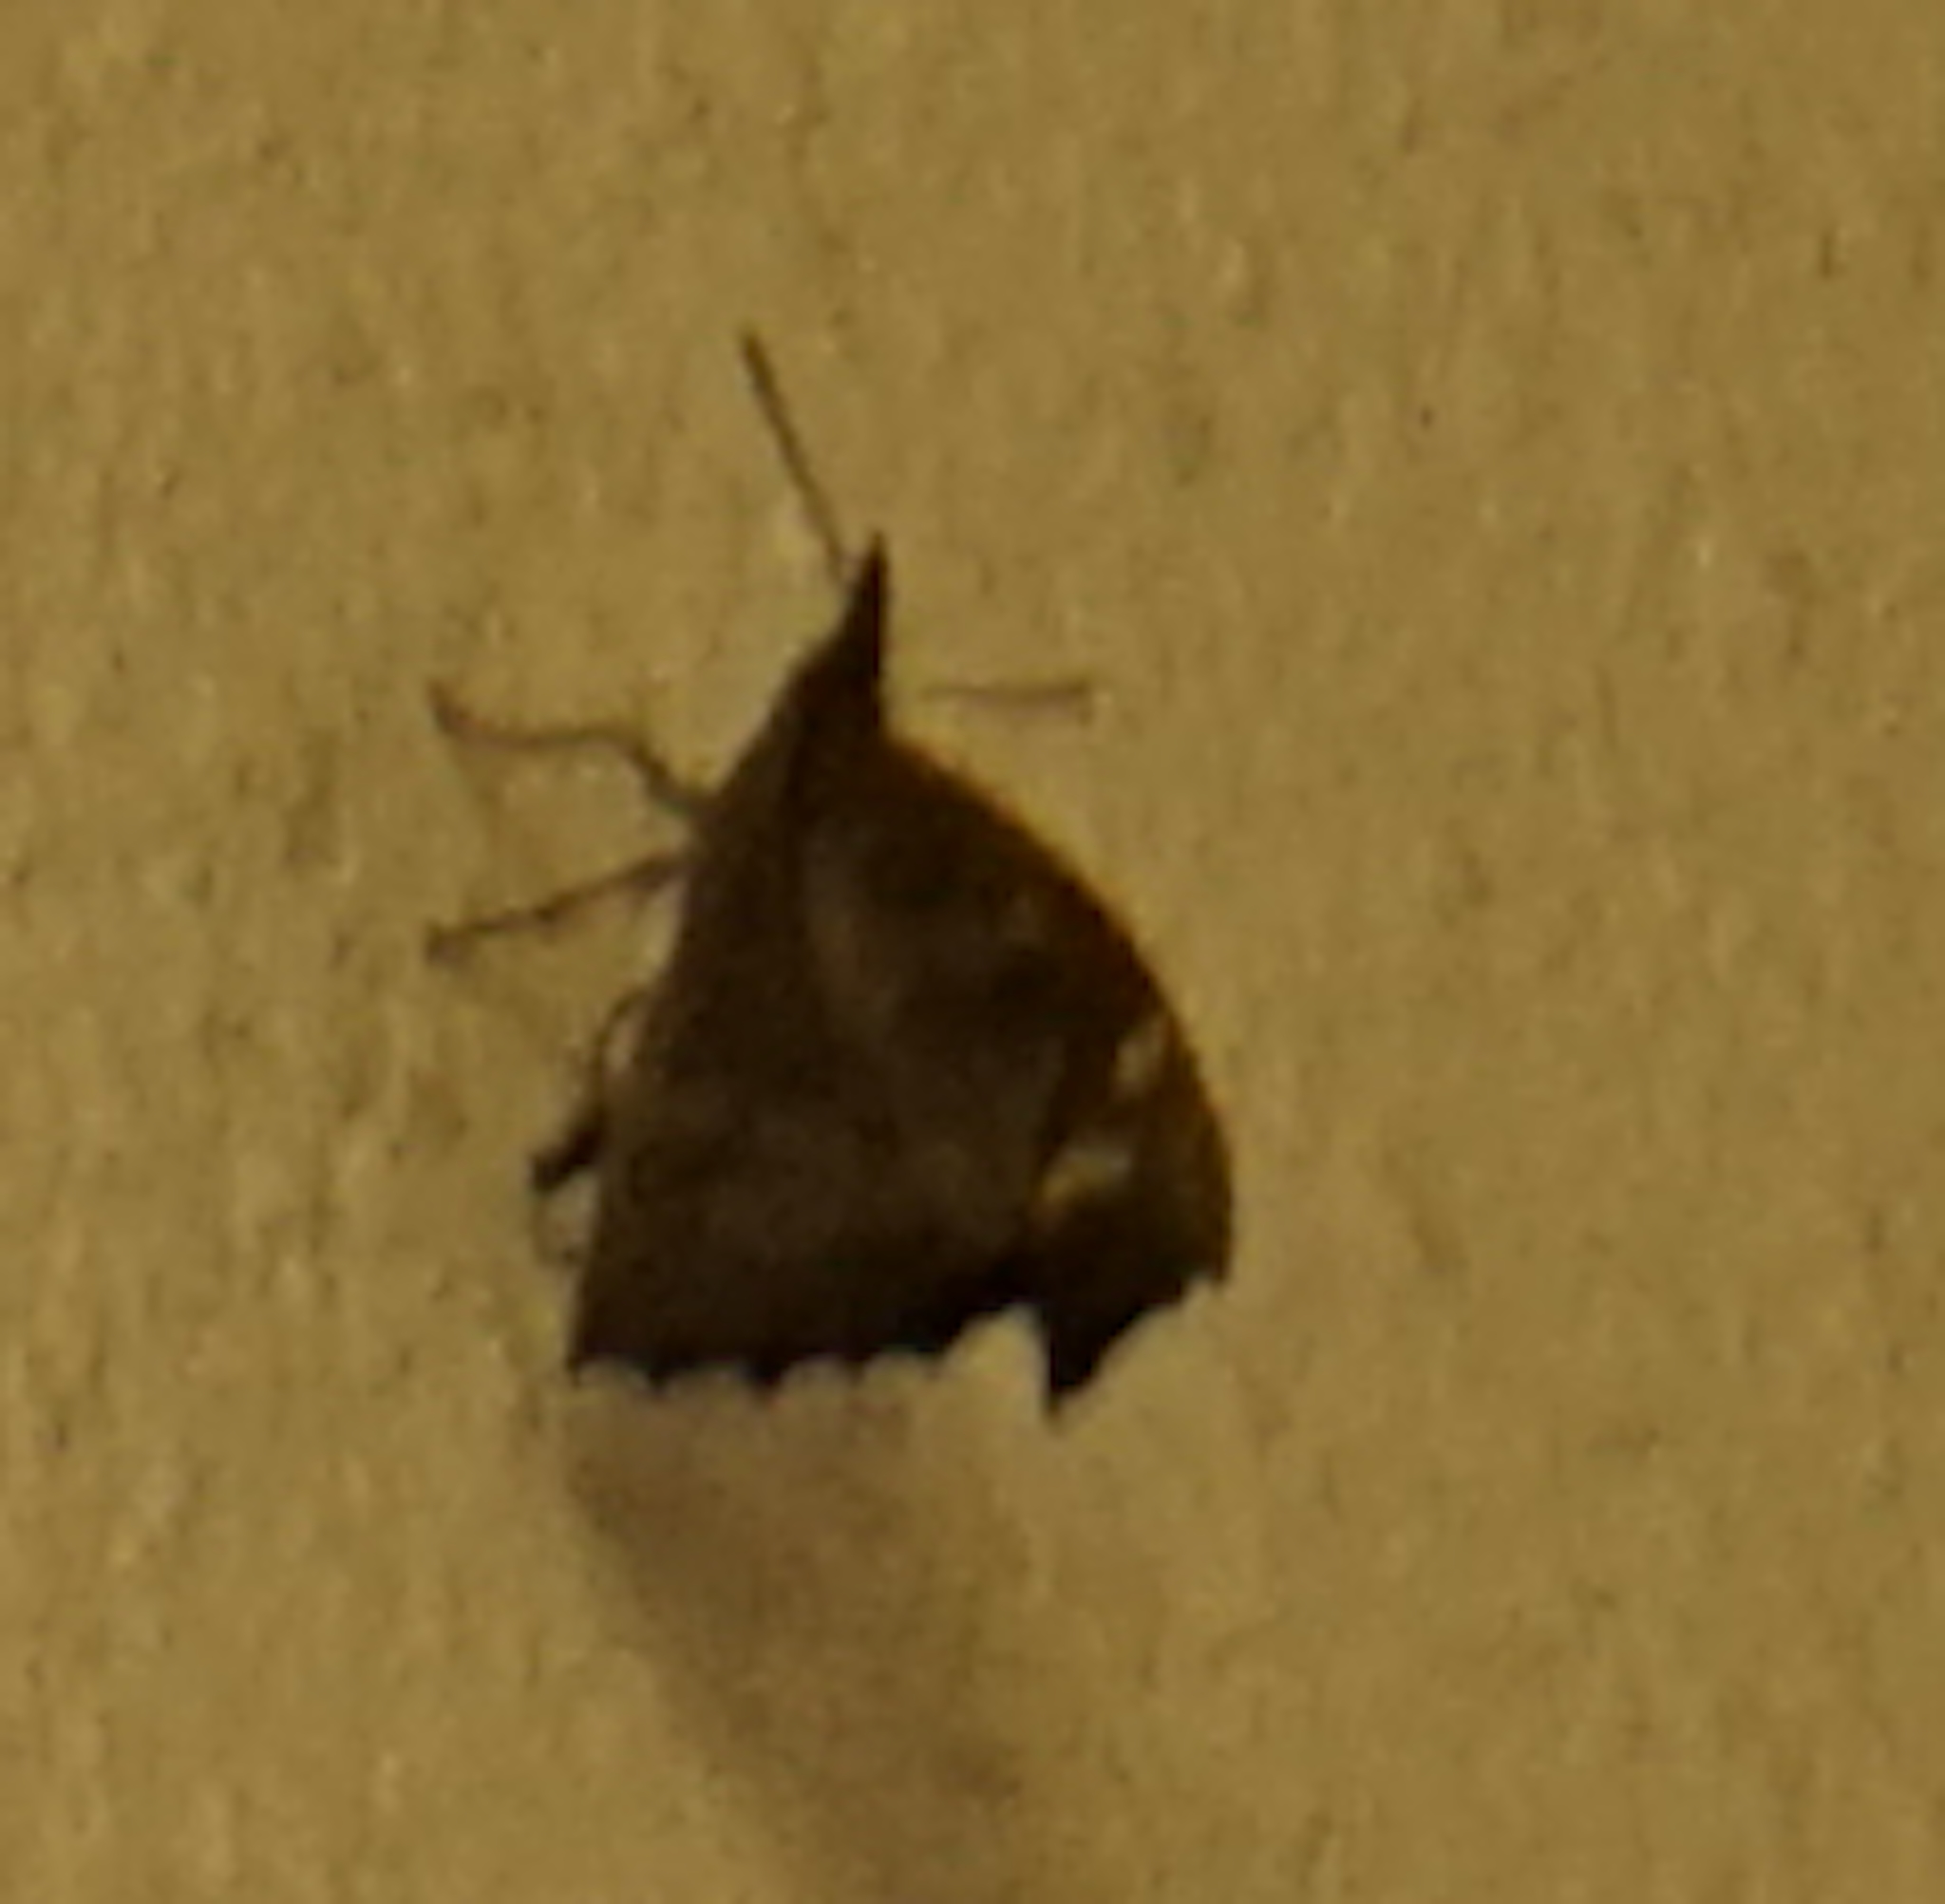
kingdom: Animalia
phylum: Arthropoda
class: Insecta
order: Lepidoptera
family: Nymphalidae
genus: Libythea
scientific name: Libythea lepita
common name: Common beak
